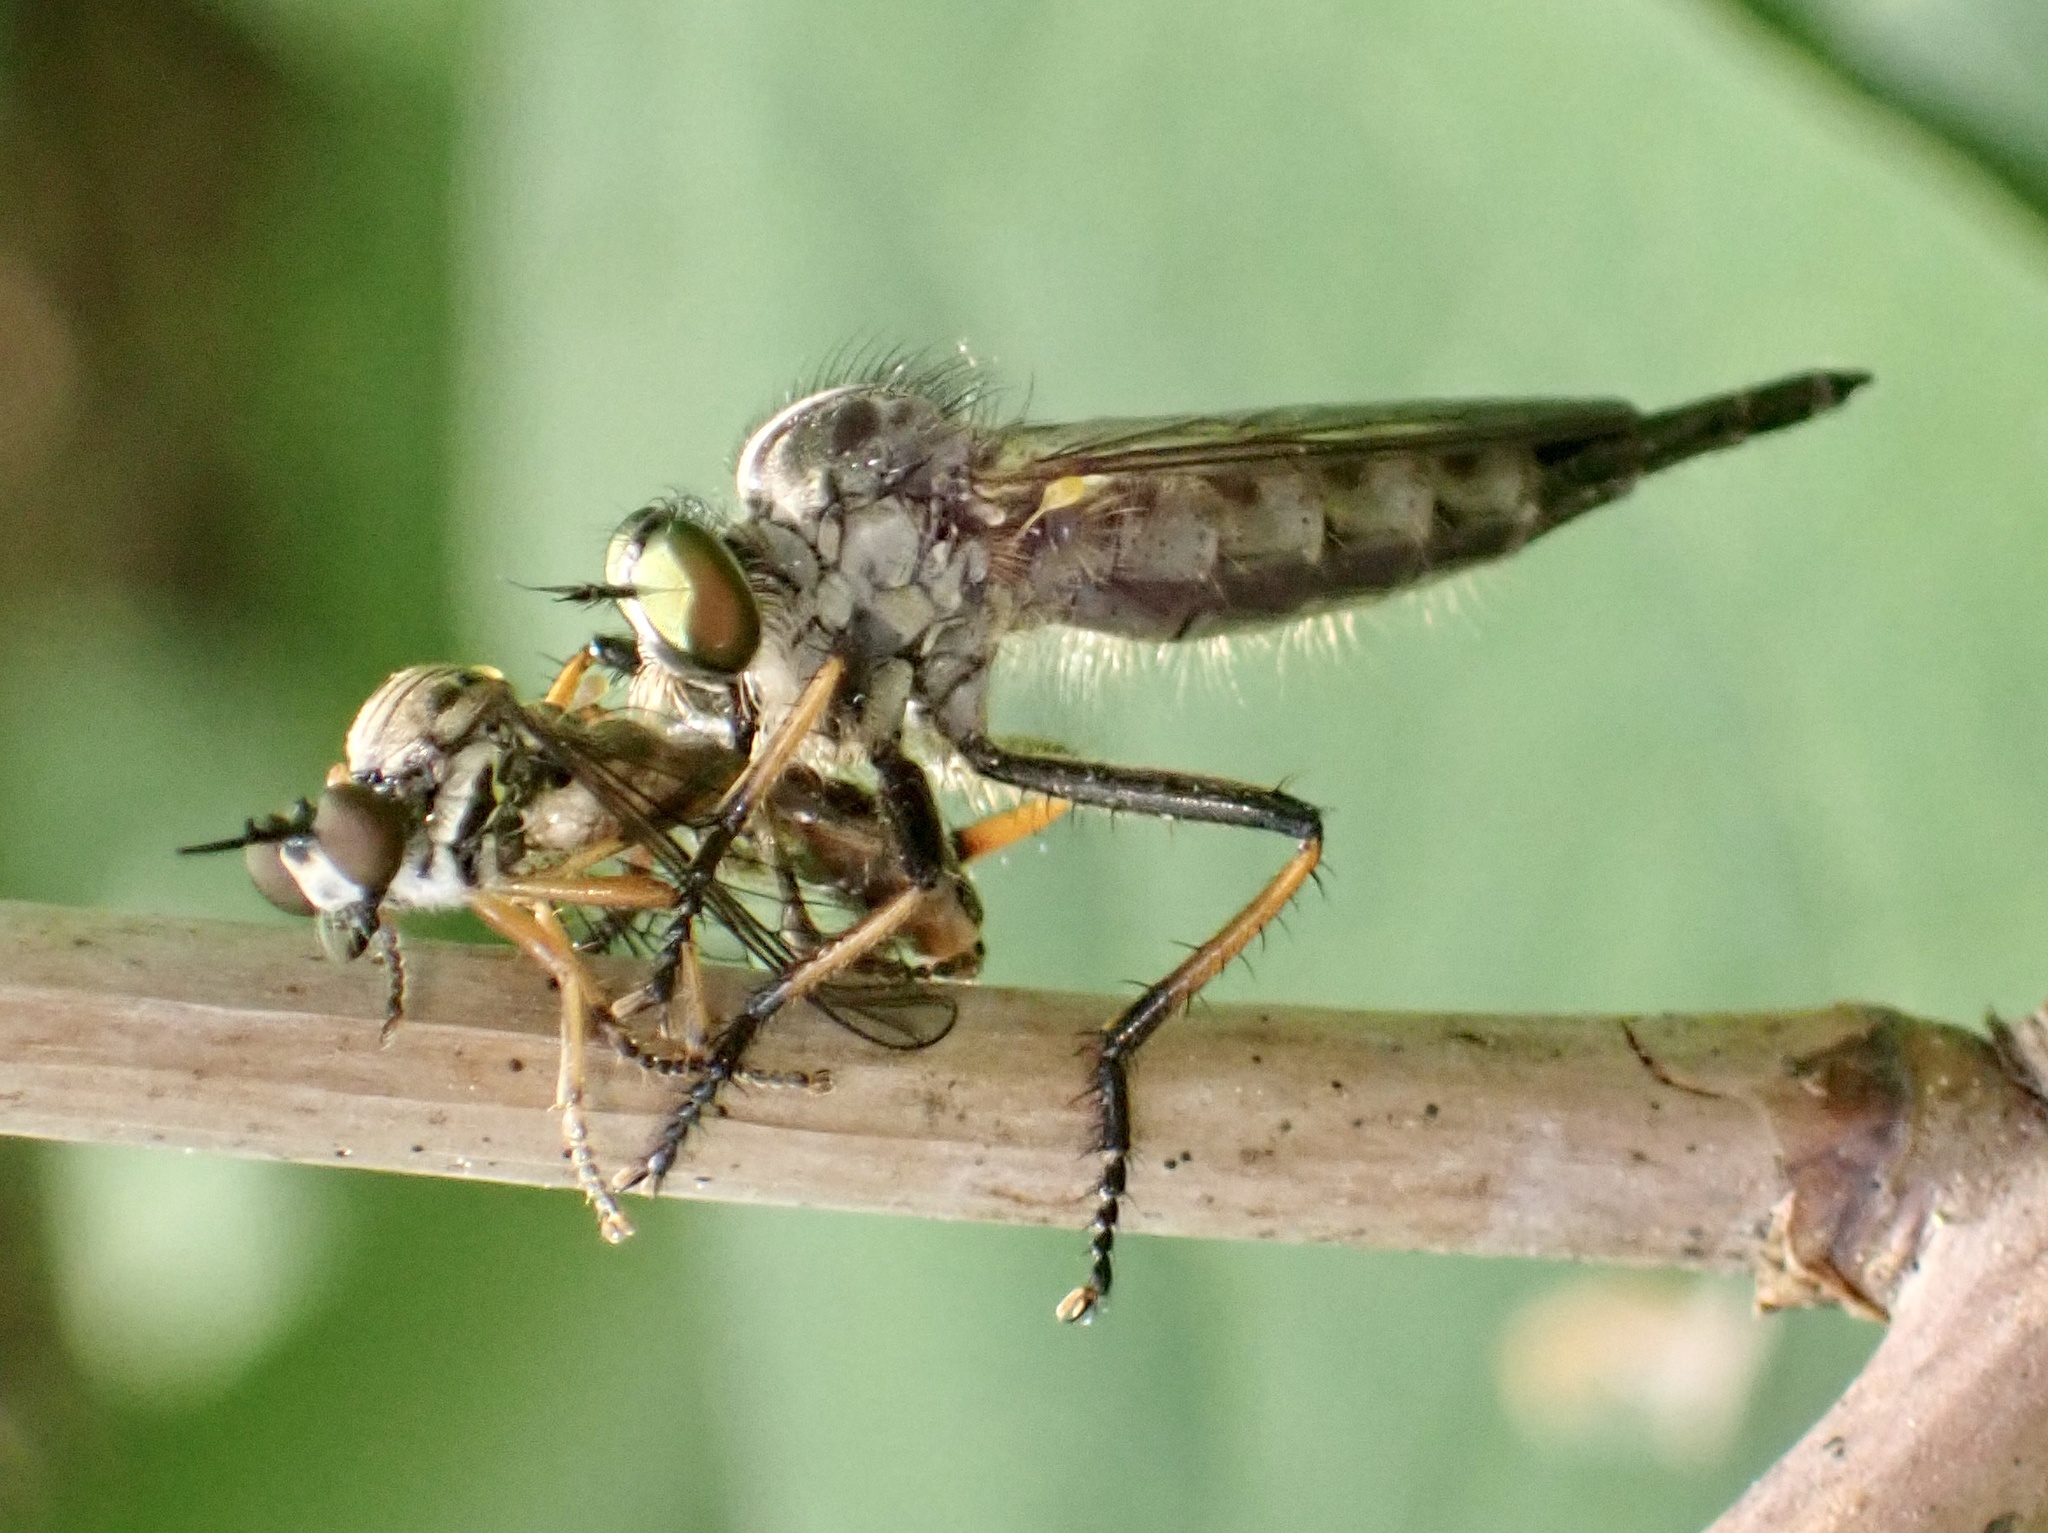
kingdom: Animalia
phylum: Arthropoda
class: Insecta
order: Diptera
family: Asilidae
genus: Neoitamus
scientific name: Neoitamus cyanurus
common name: Common awl robberfly
